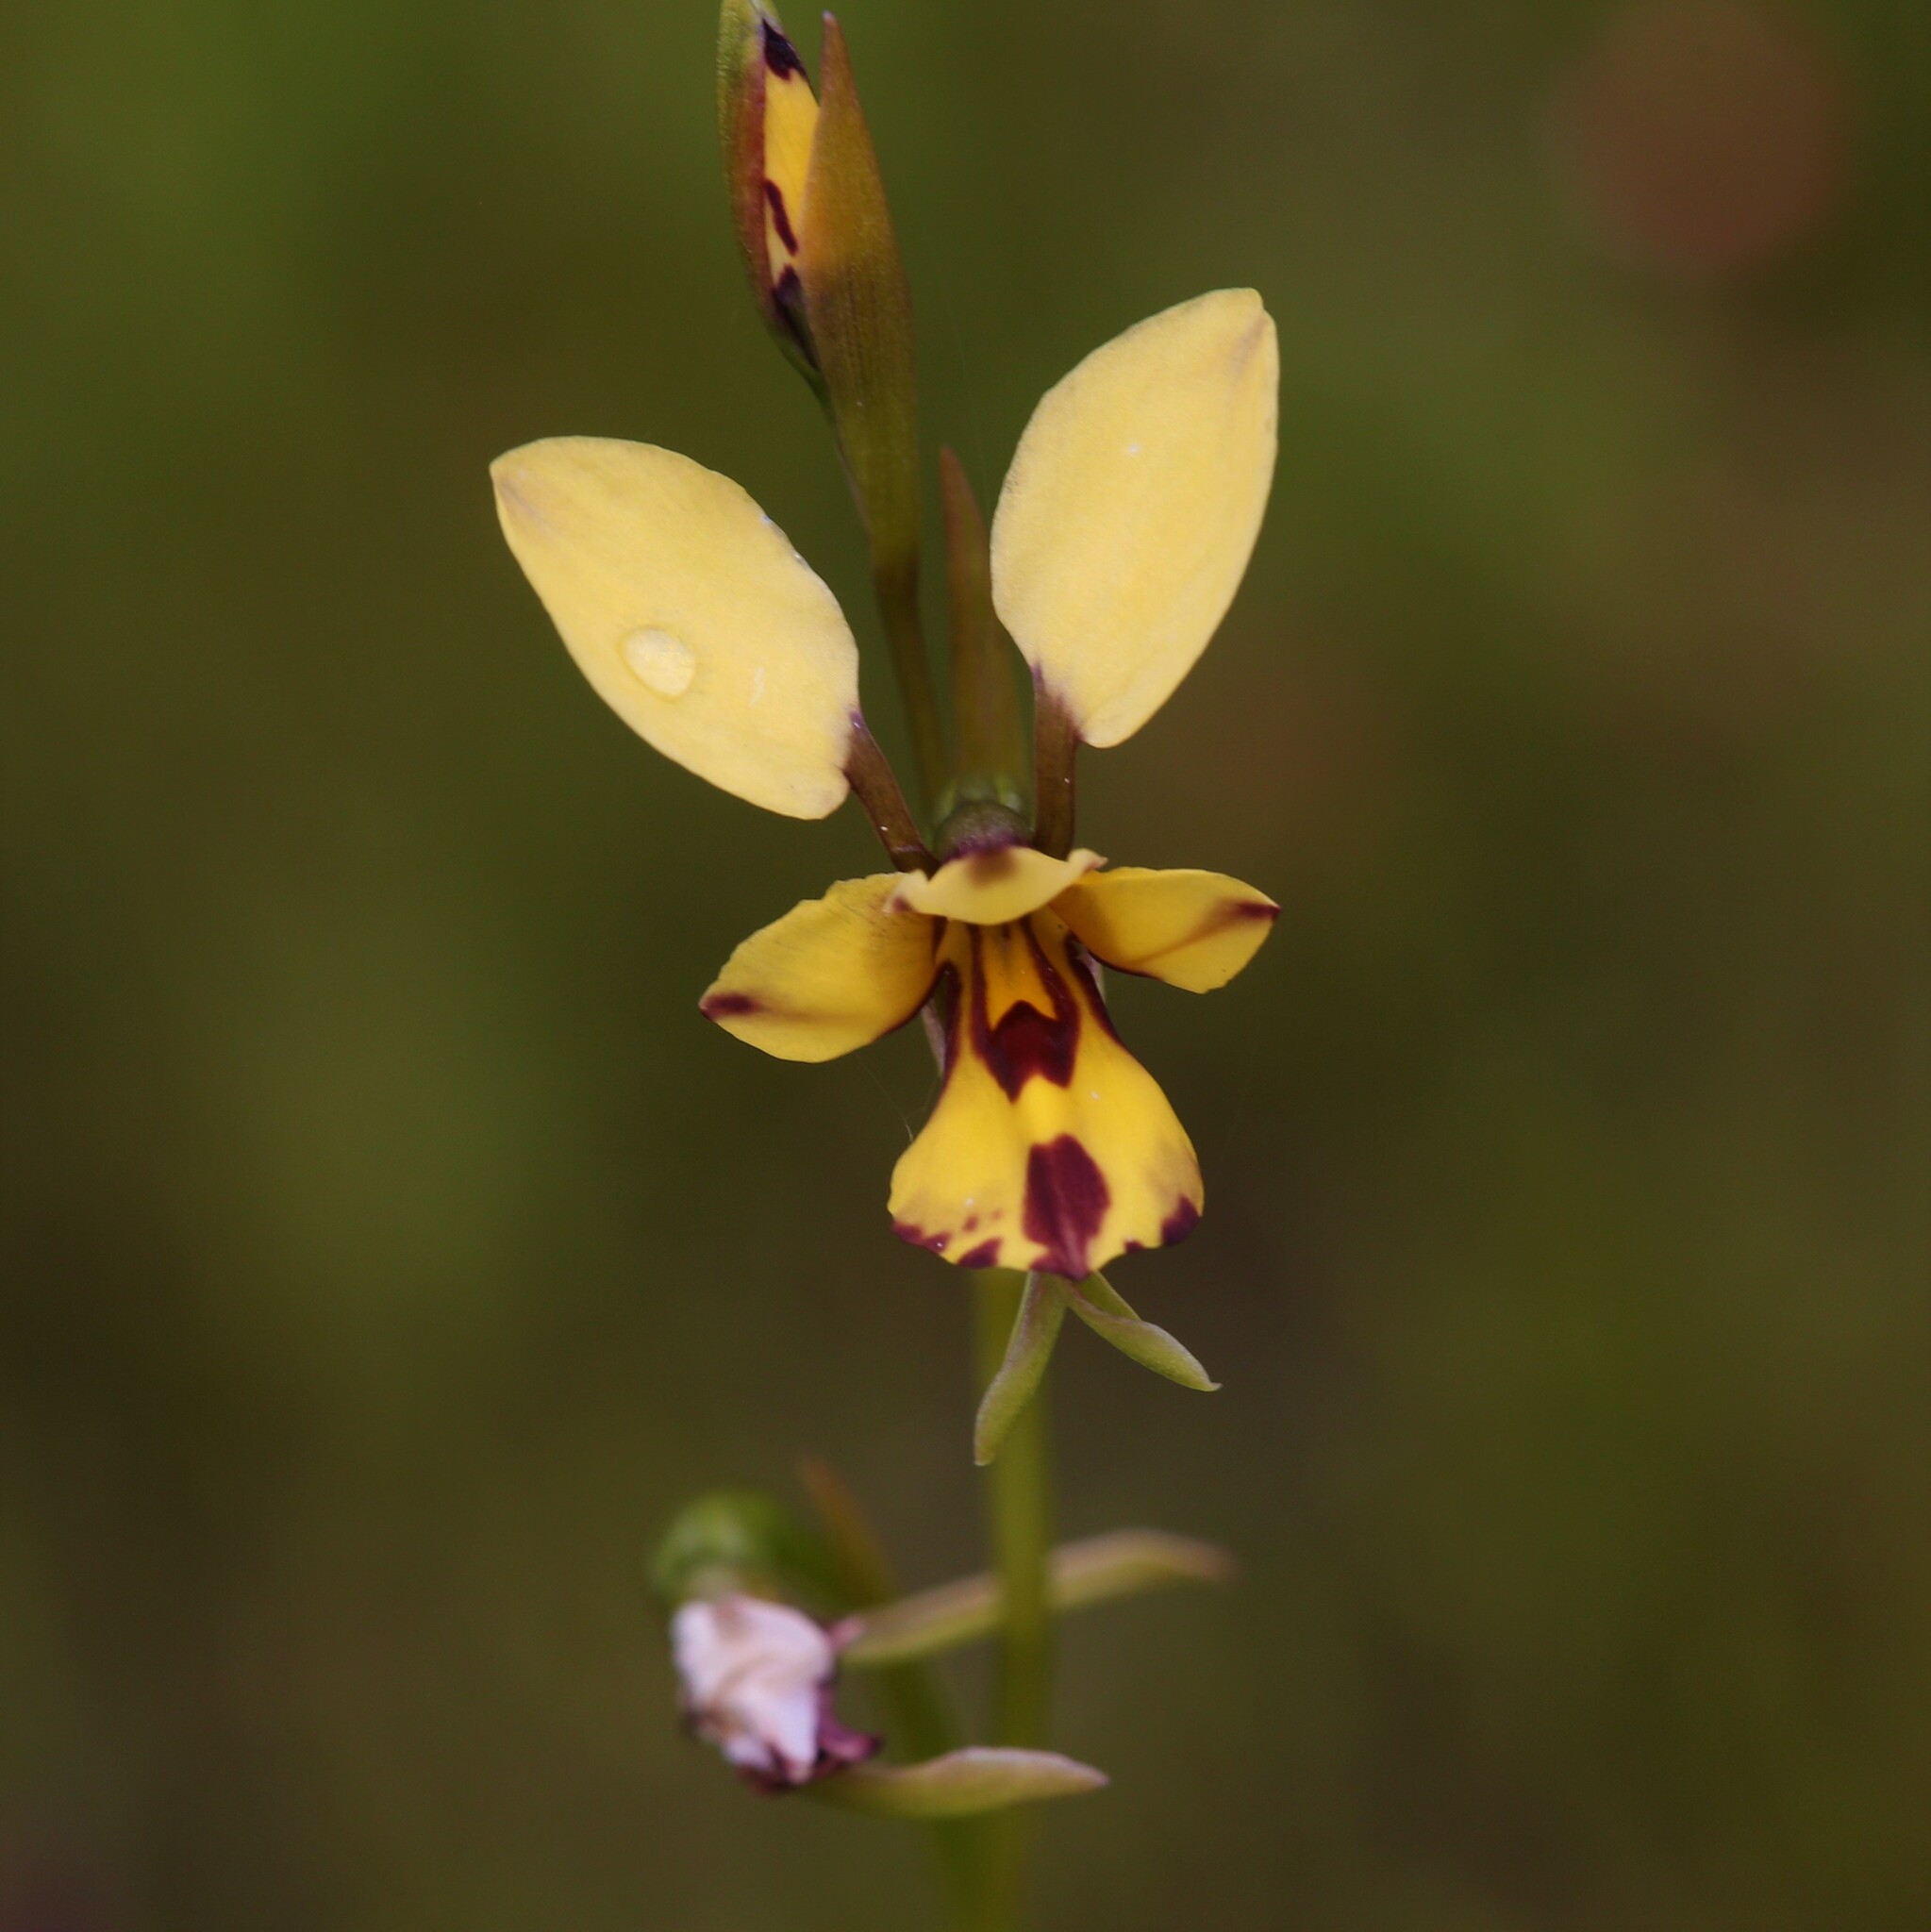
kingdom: Plantae
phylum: Tracheophyta
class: Liliopsida
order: Asparagales
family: Orchidaceae
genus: Diuris
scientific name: Diuris laxiflora
